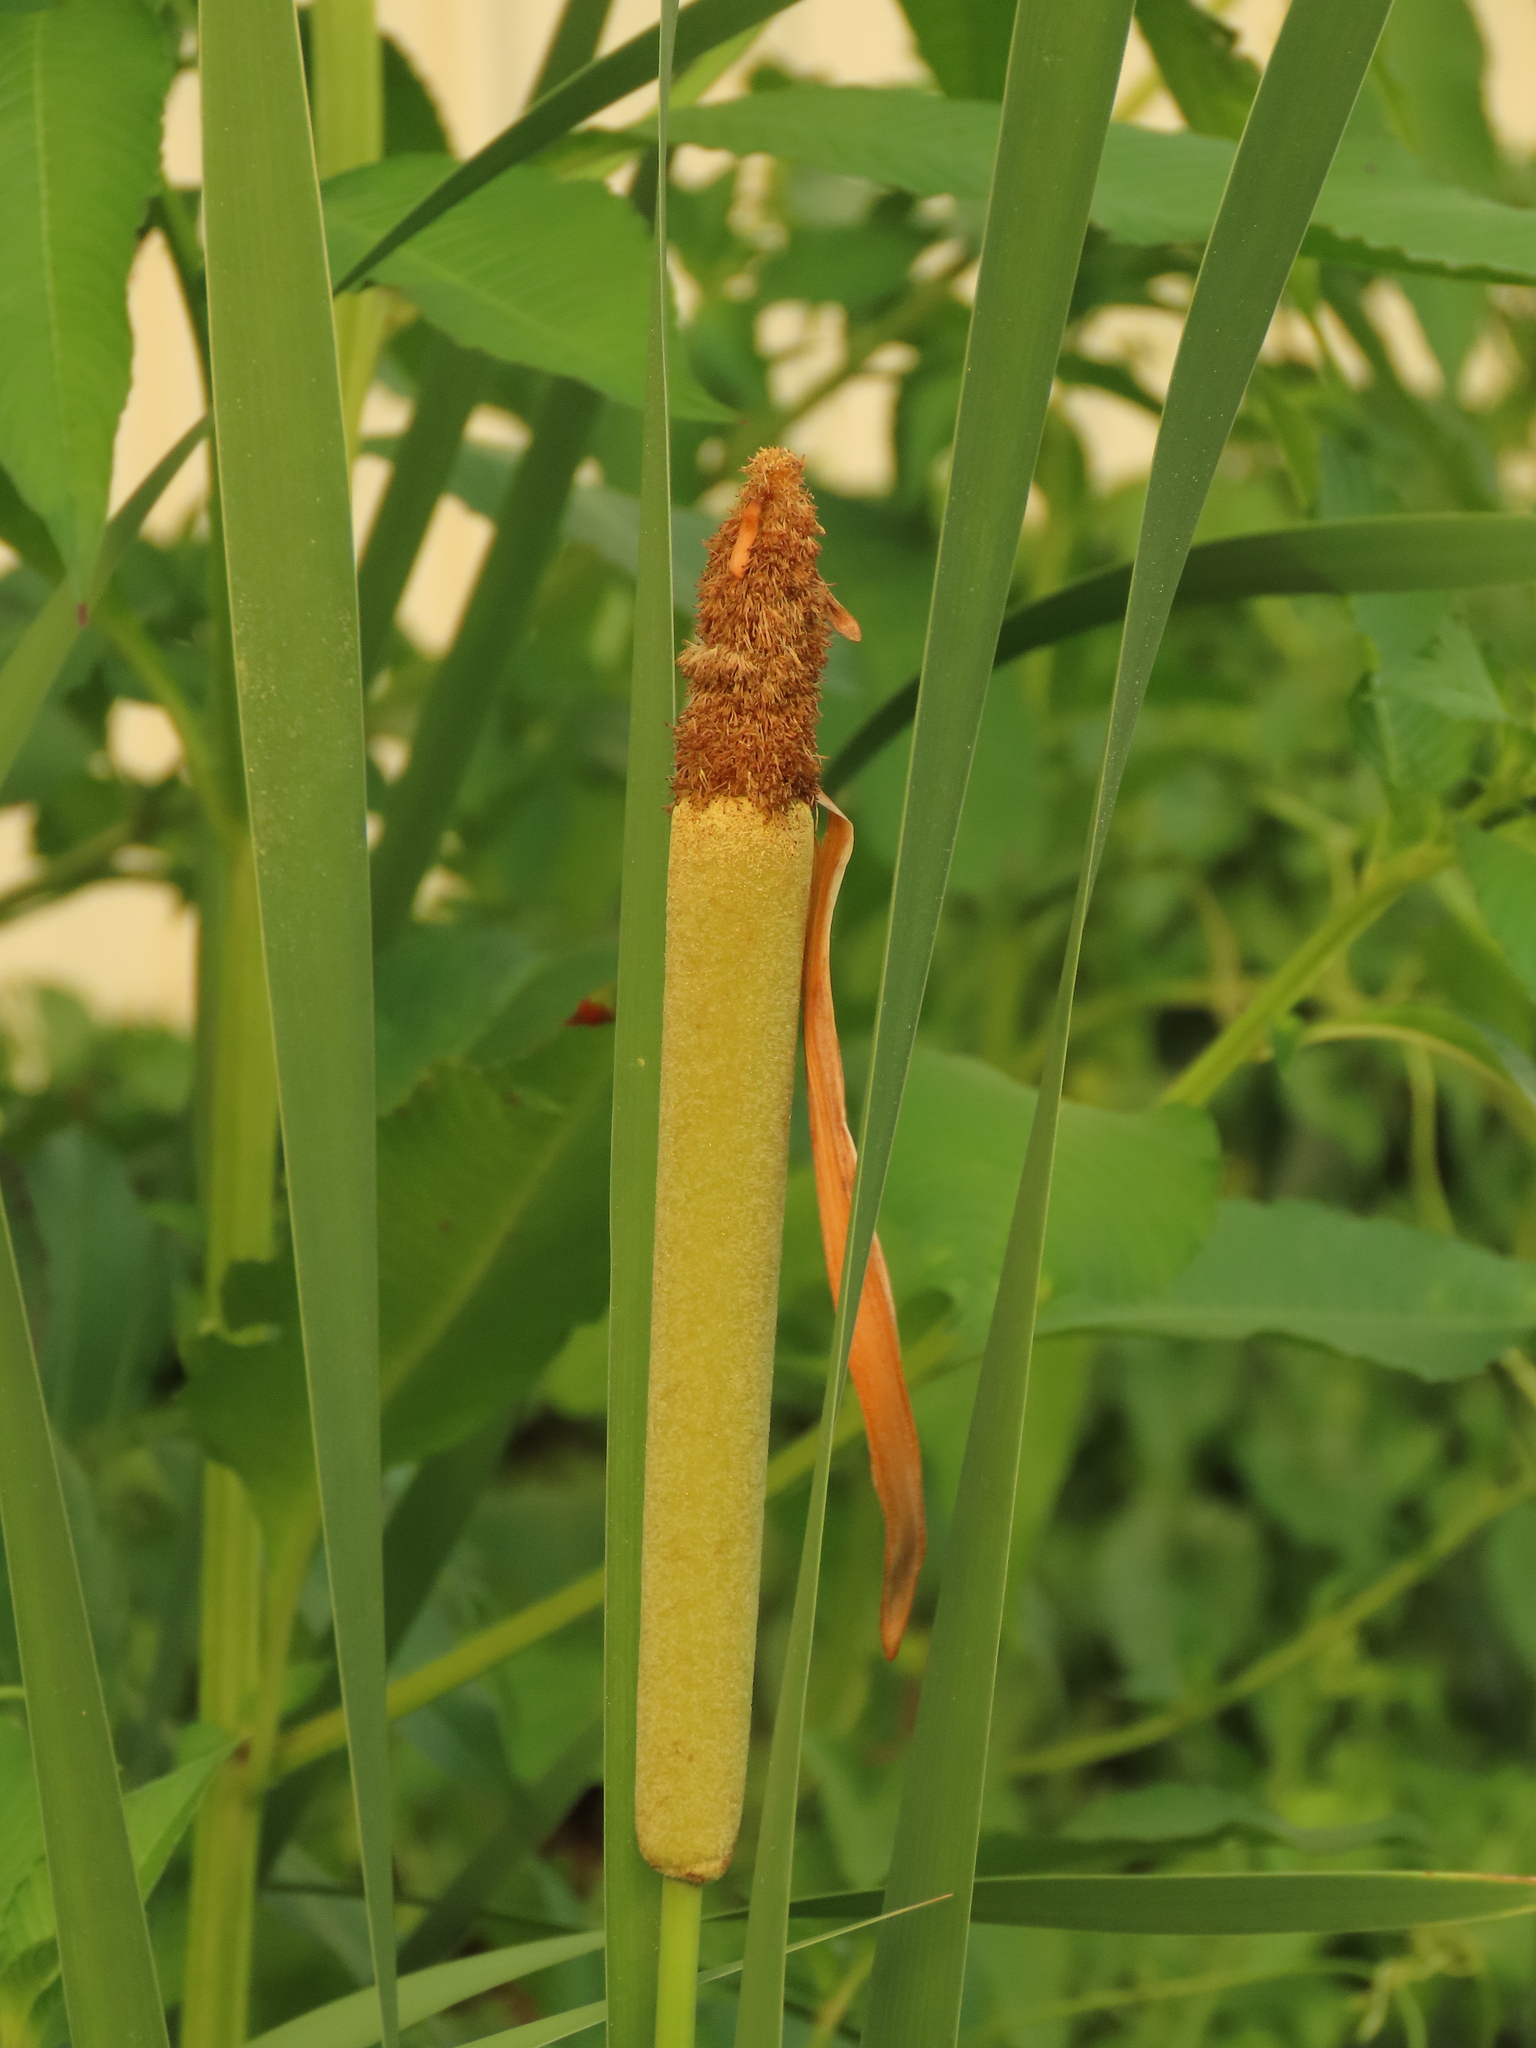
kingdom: Plantae
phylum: Tracheophyta
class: Liliopsida
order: Poales
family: Typhaceae
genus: Typha
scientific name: Typha orientalis
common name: Bullrush
